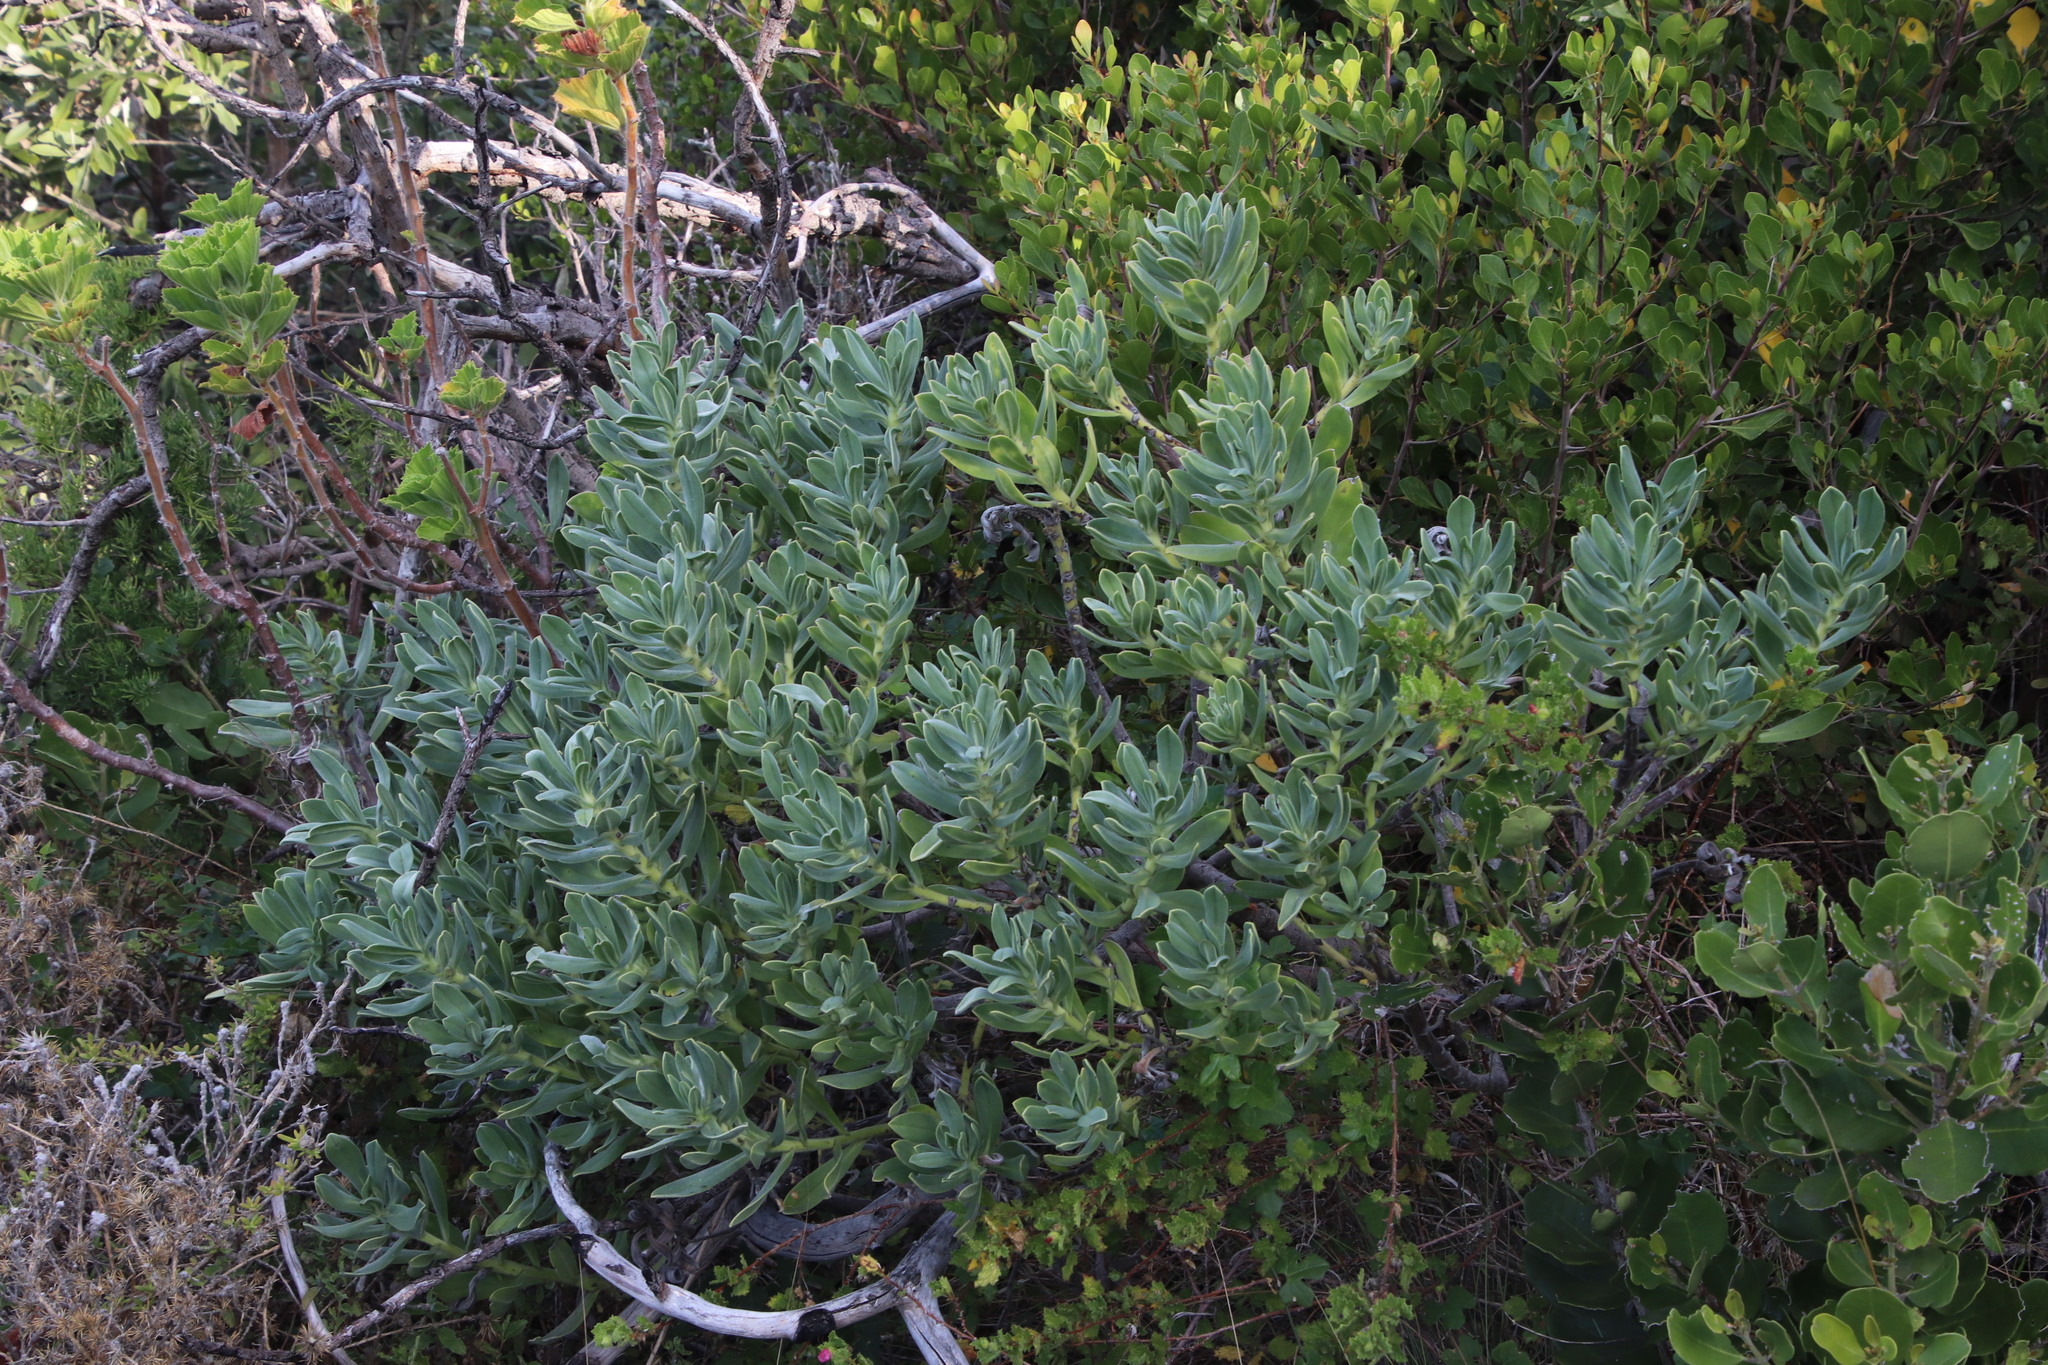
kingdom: Plantae
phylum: Tracheophyta
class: Magnoliopsida
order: Boraginales
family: Boraginaceae
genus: Lobostemon
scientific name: Lobostemon montanus
